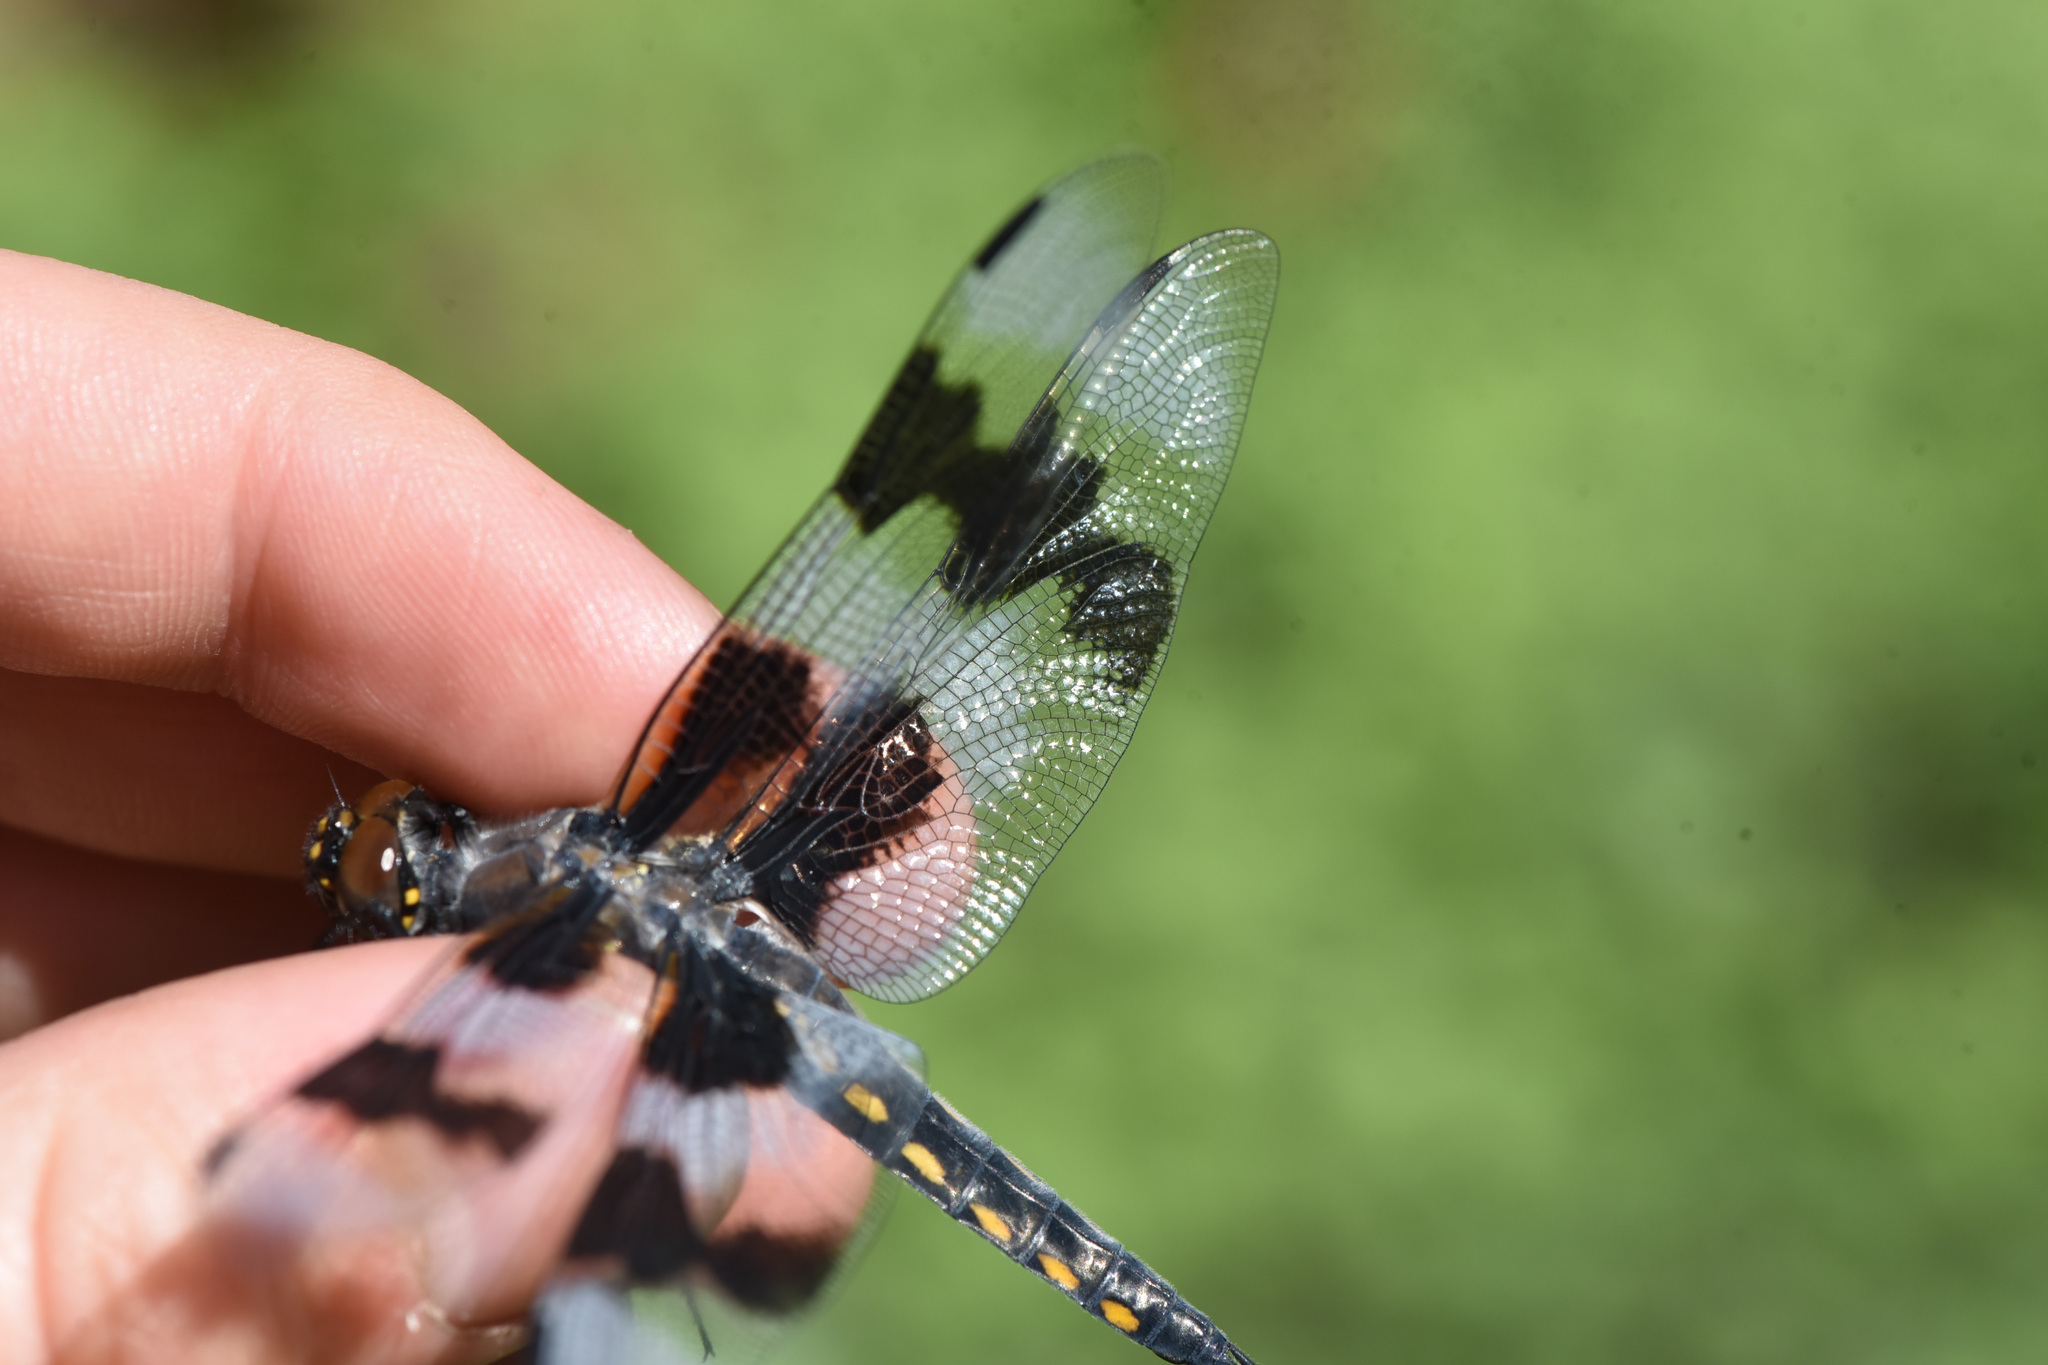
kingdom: Animalia
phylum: Arthropoda
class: Insecta
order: Odonata
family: Libellulidae
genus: Libellula
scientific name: Libellula forensis
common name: Eight-spotted skimmer
